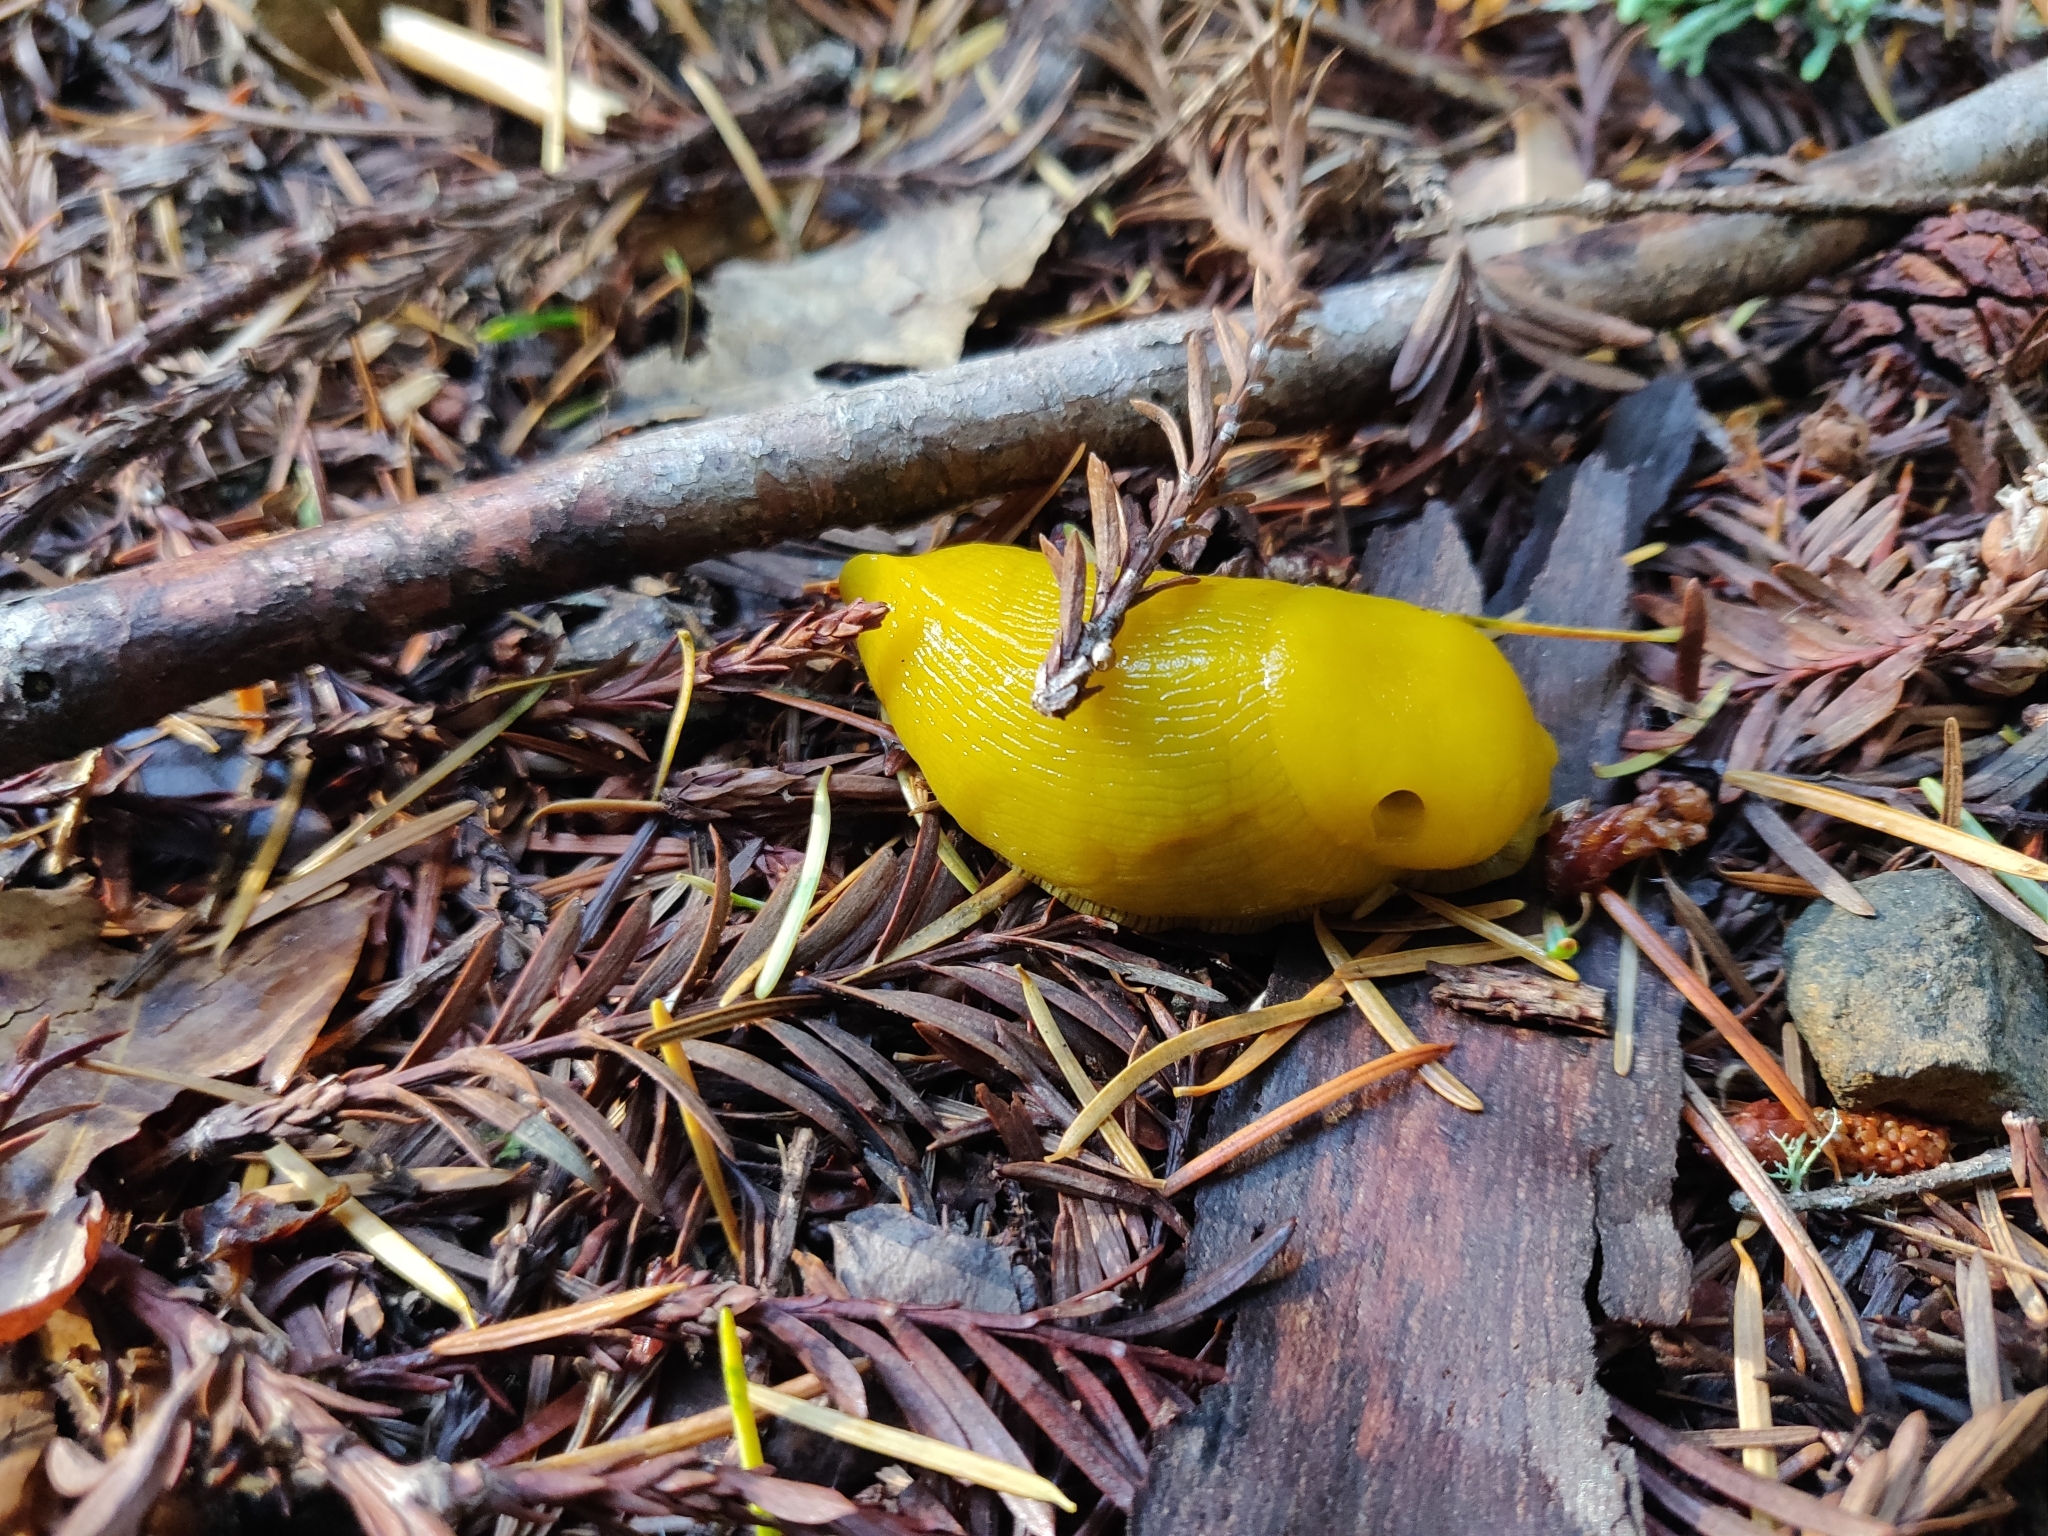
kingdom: Animalia
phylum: Mollusca
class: Gastropoda
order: Stylommatophora
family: Ariolimacidae
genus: Ariolimax
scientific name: Ariolimax californicus
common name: California banana slug
